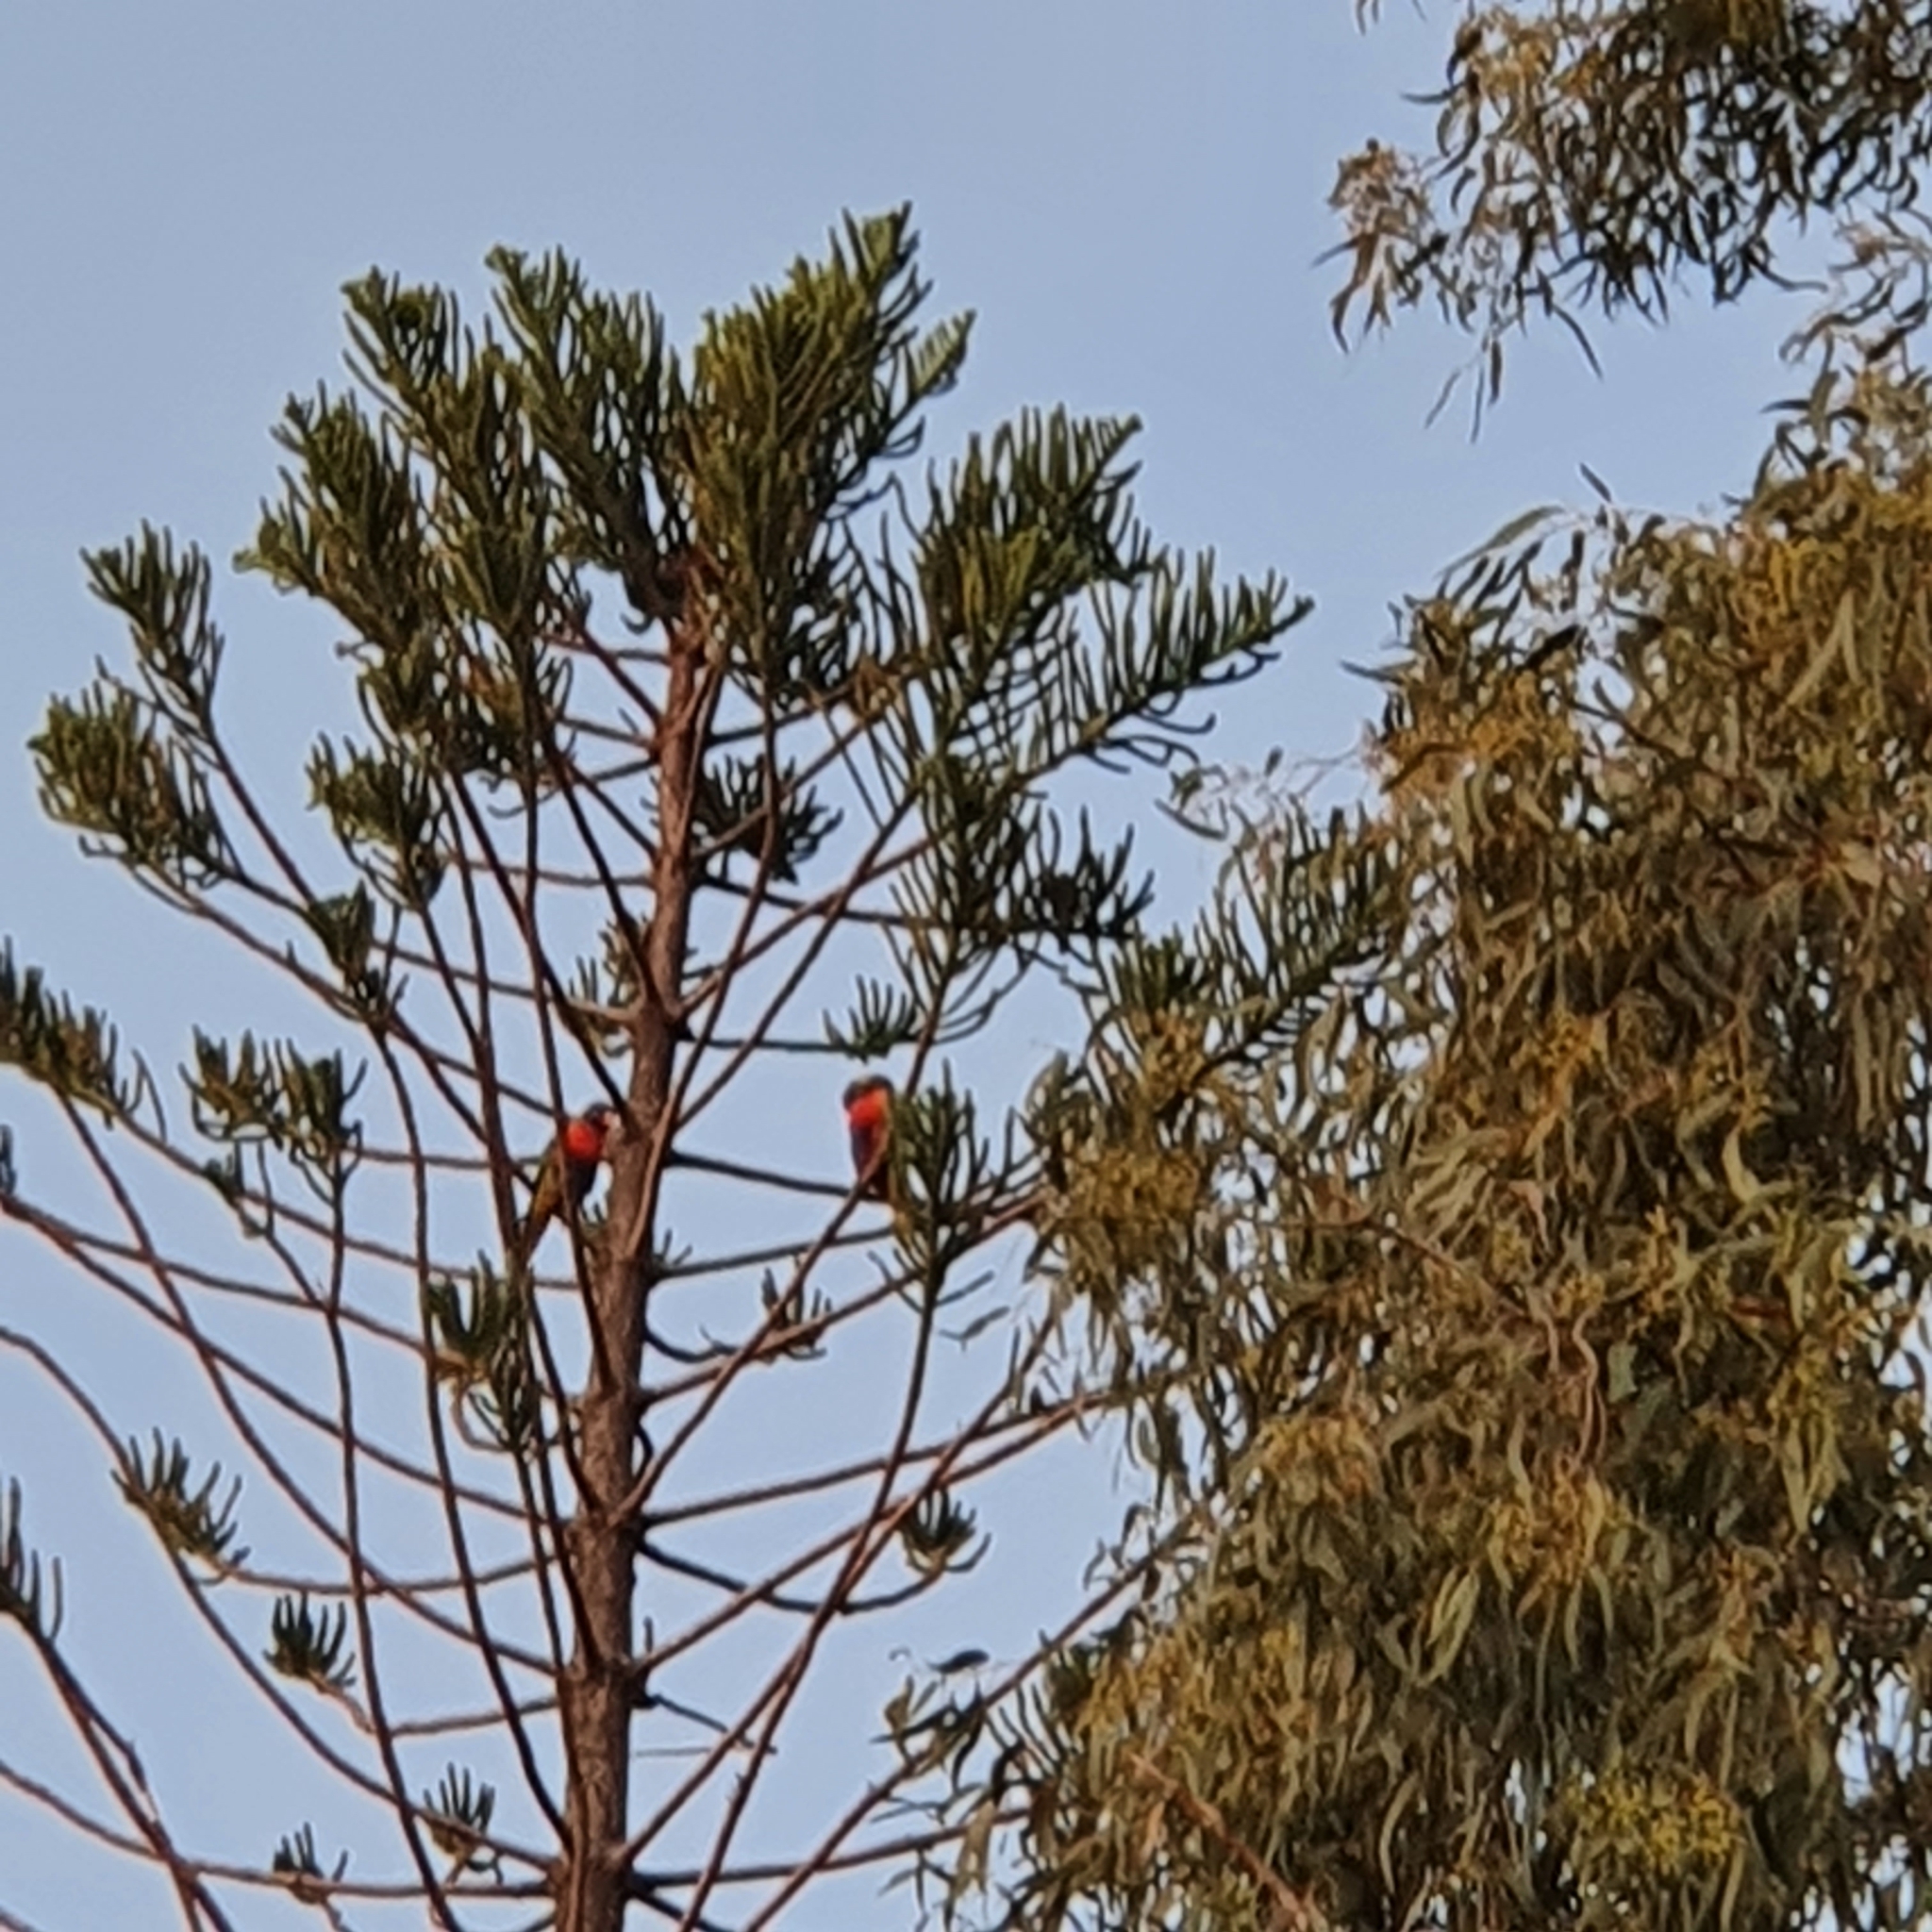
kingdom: Animalia
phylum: Chordata
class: Aves
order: Psittaciformes
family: Psittacidae
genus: Trichoglossus
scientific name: Trichoglossus haematodus
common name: Coconut lorikeet
